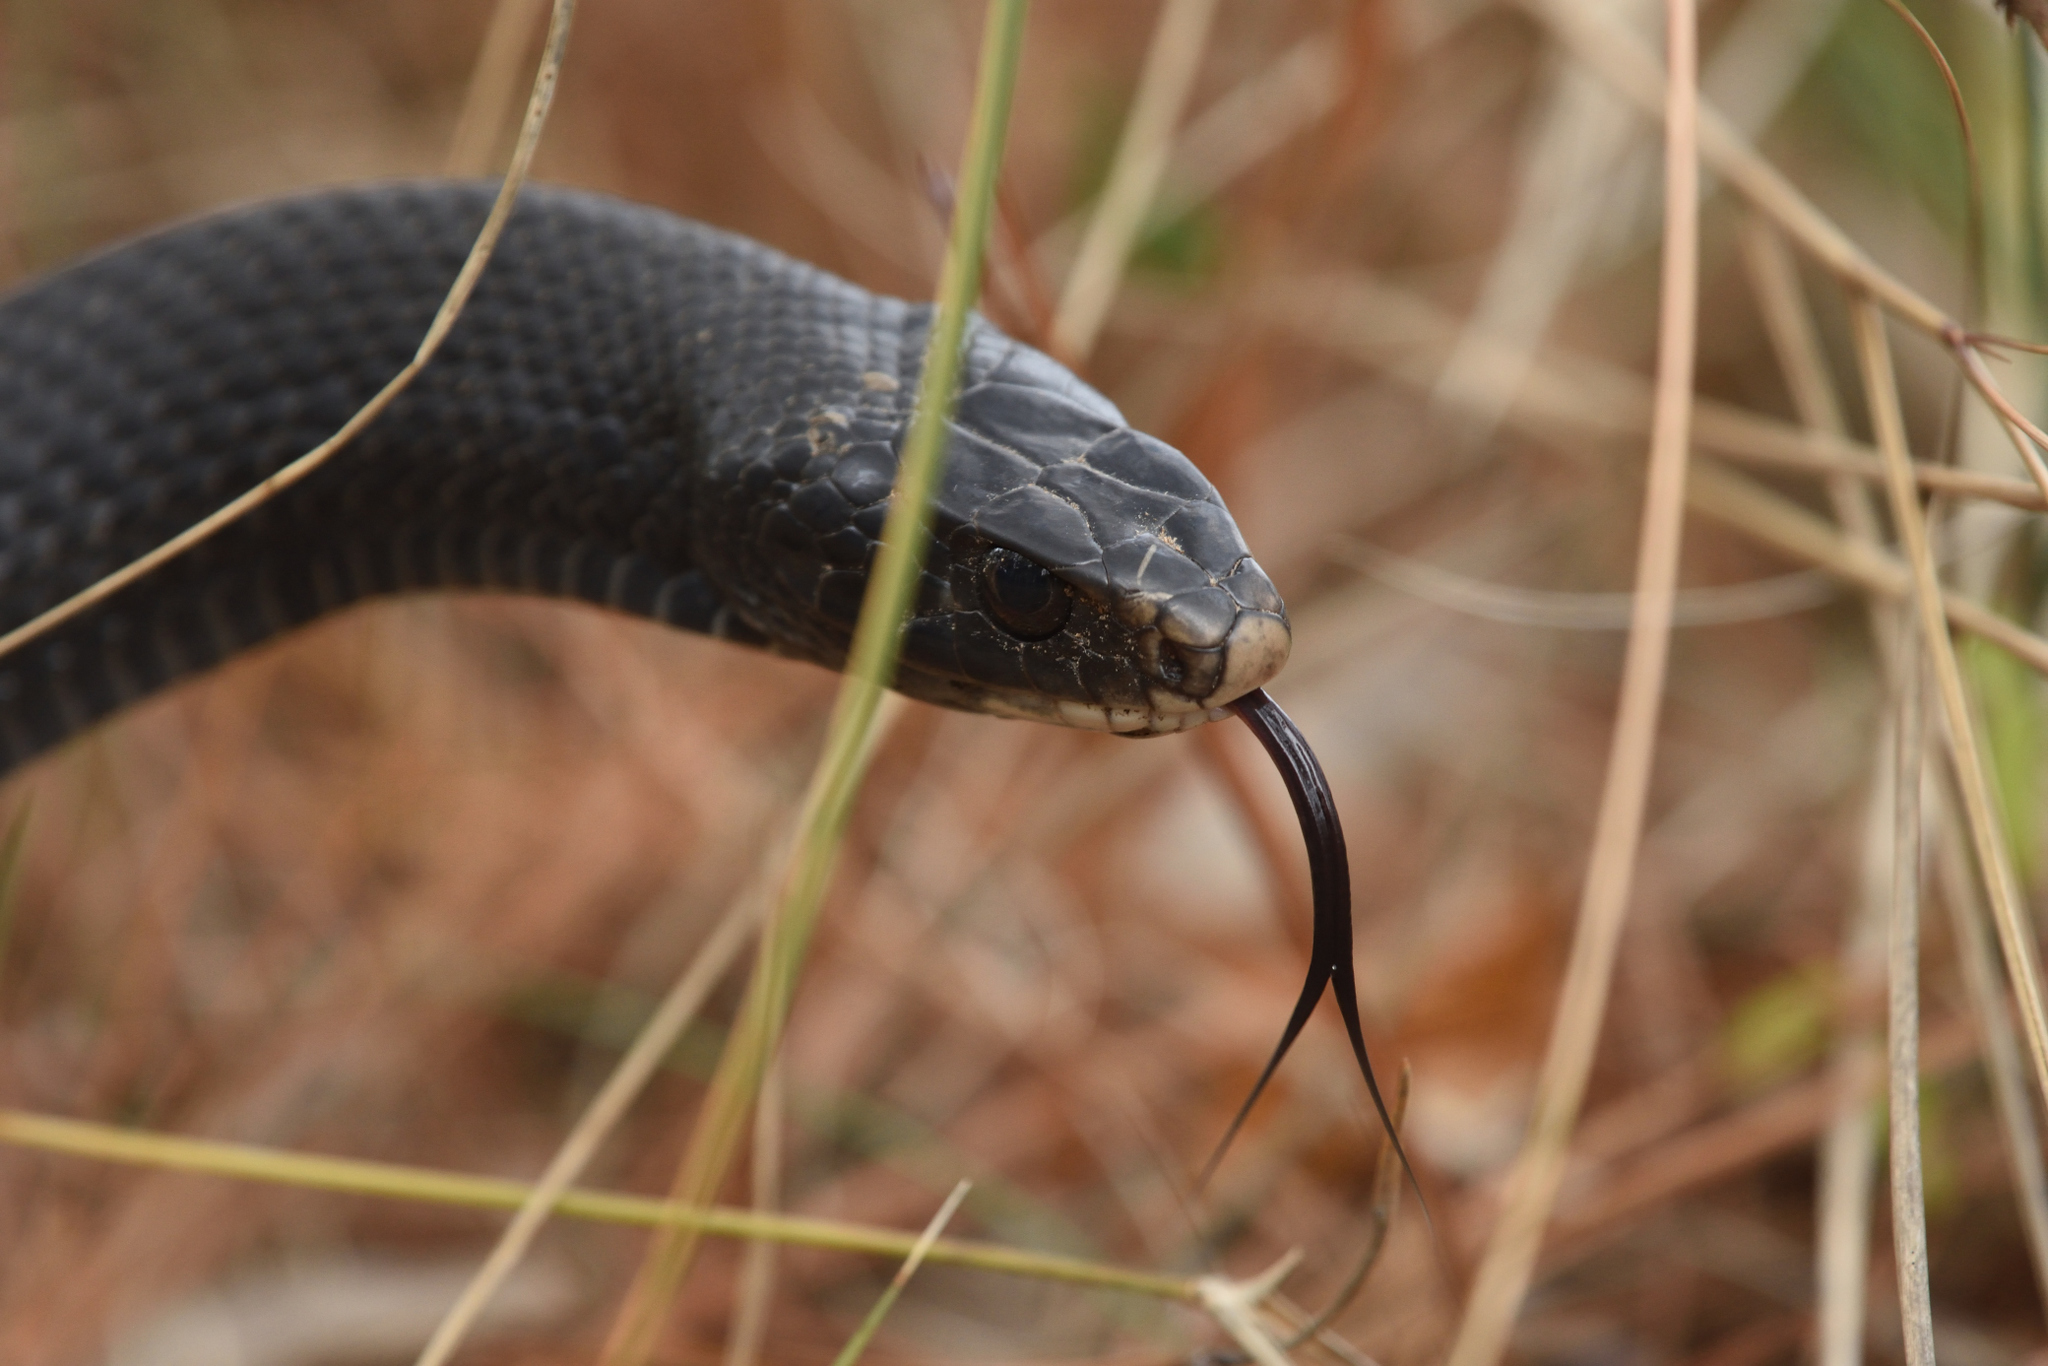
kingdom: Animalia
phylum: Chordata
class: Squamata
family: Colubridae
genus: Coluber
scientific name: Coluber constrictor
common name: Eastern racer
